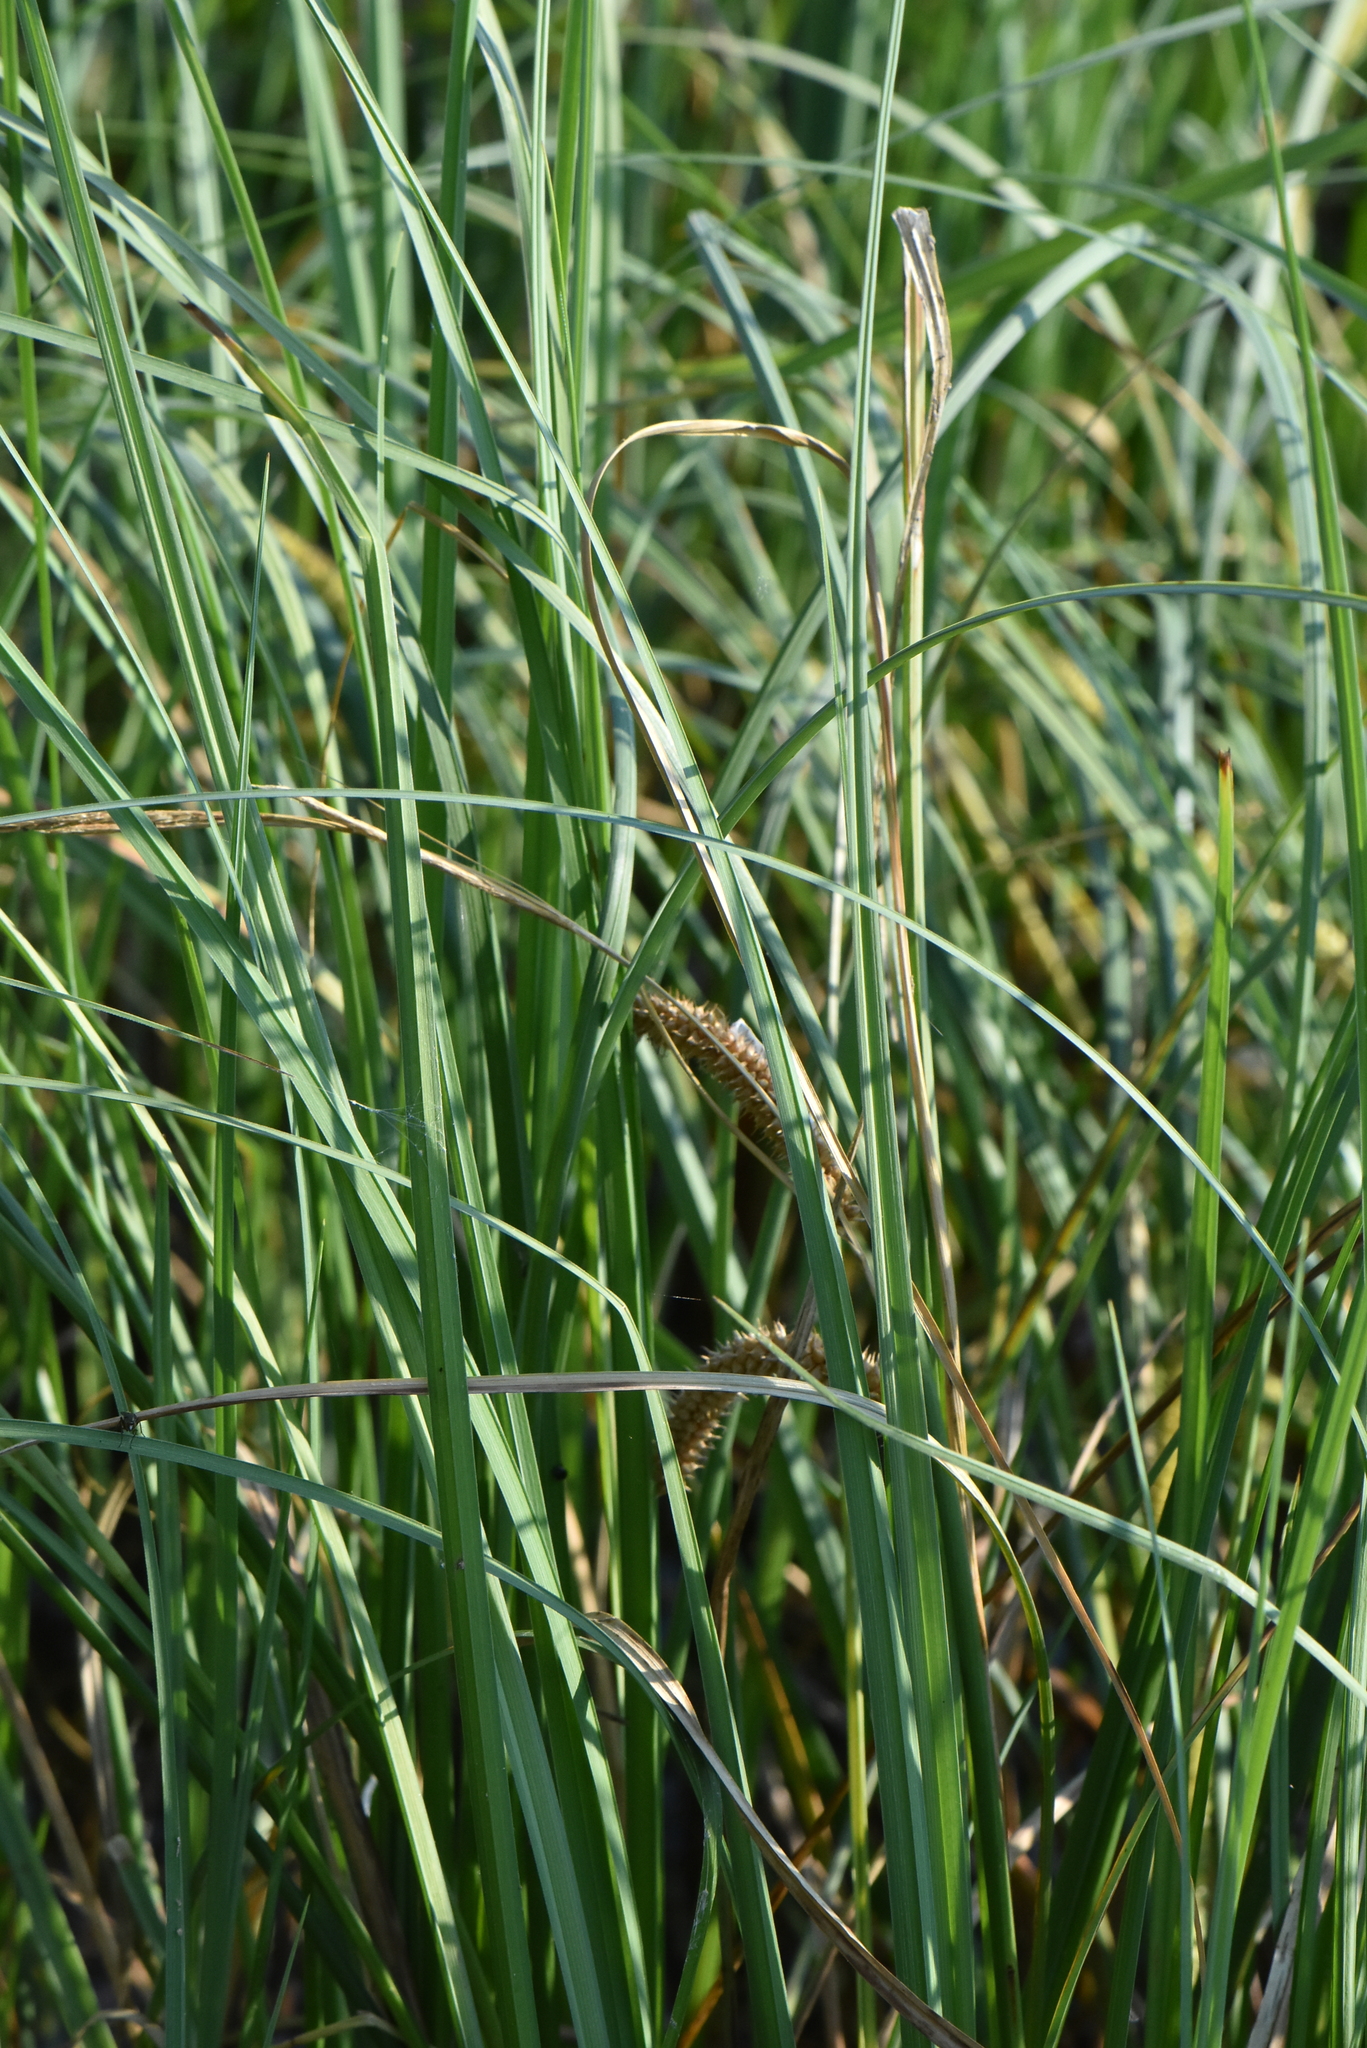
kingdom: Plantae
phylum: Tracheophyta
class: Liliopsida
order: Poales
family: Cyperaceae
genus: Carex
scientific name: Carex rostrata
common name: Bottle sedge
